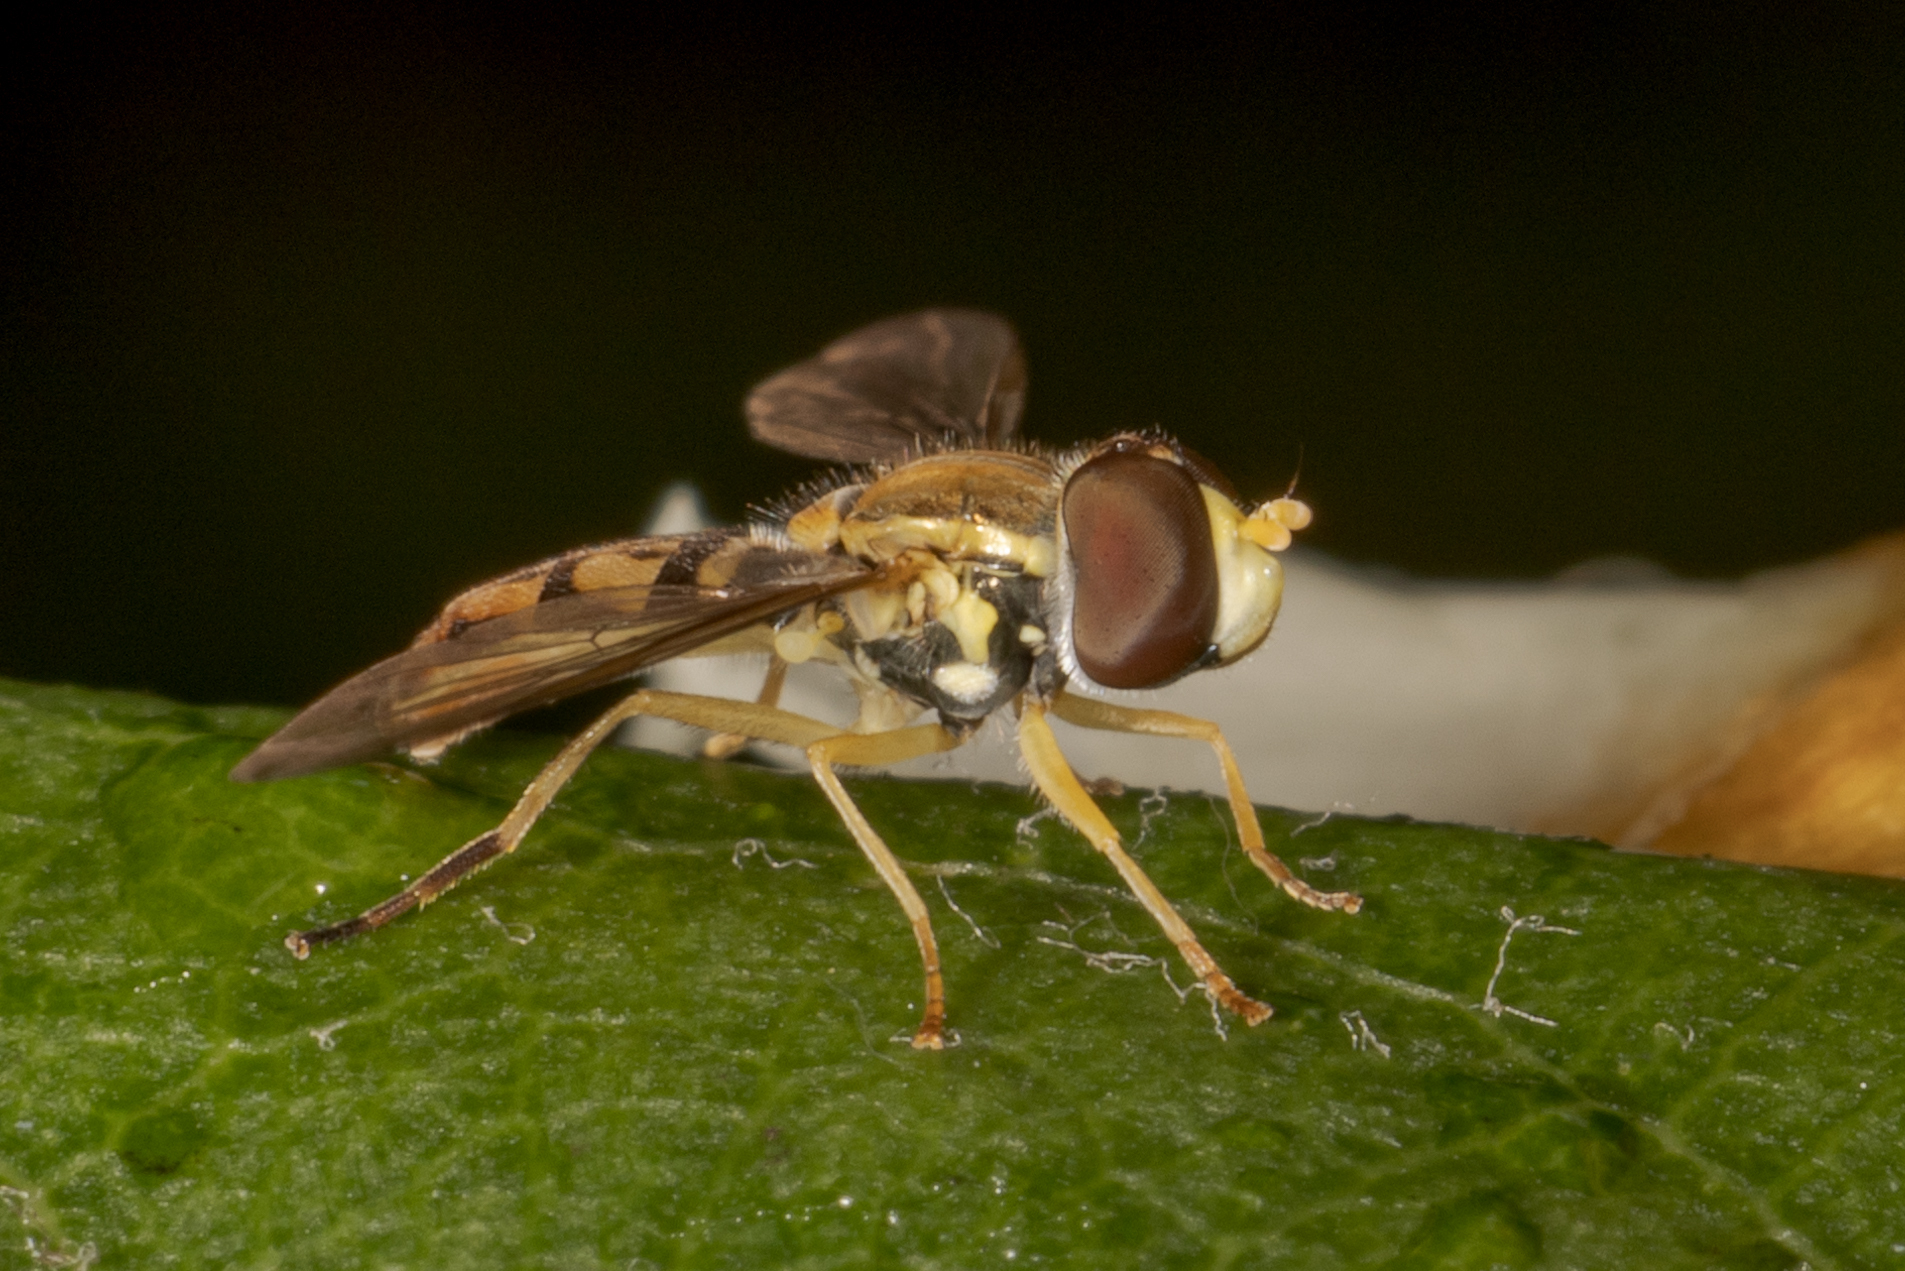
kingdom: Animalia
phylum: Arthropoda
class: Insecta
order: Diptera
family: Syrphidae
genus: Toxomerus
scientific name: Toxomerus marginatus
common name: Syrphid fly
